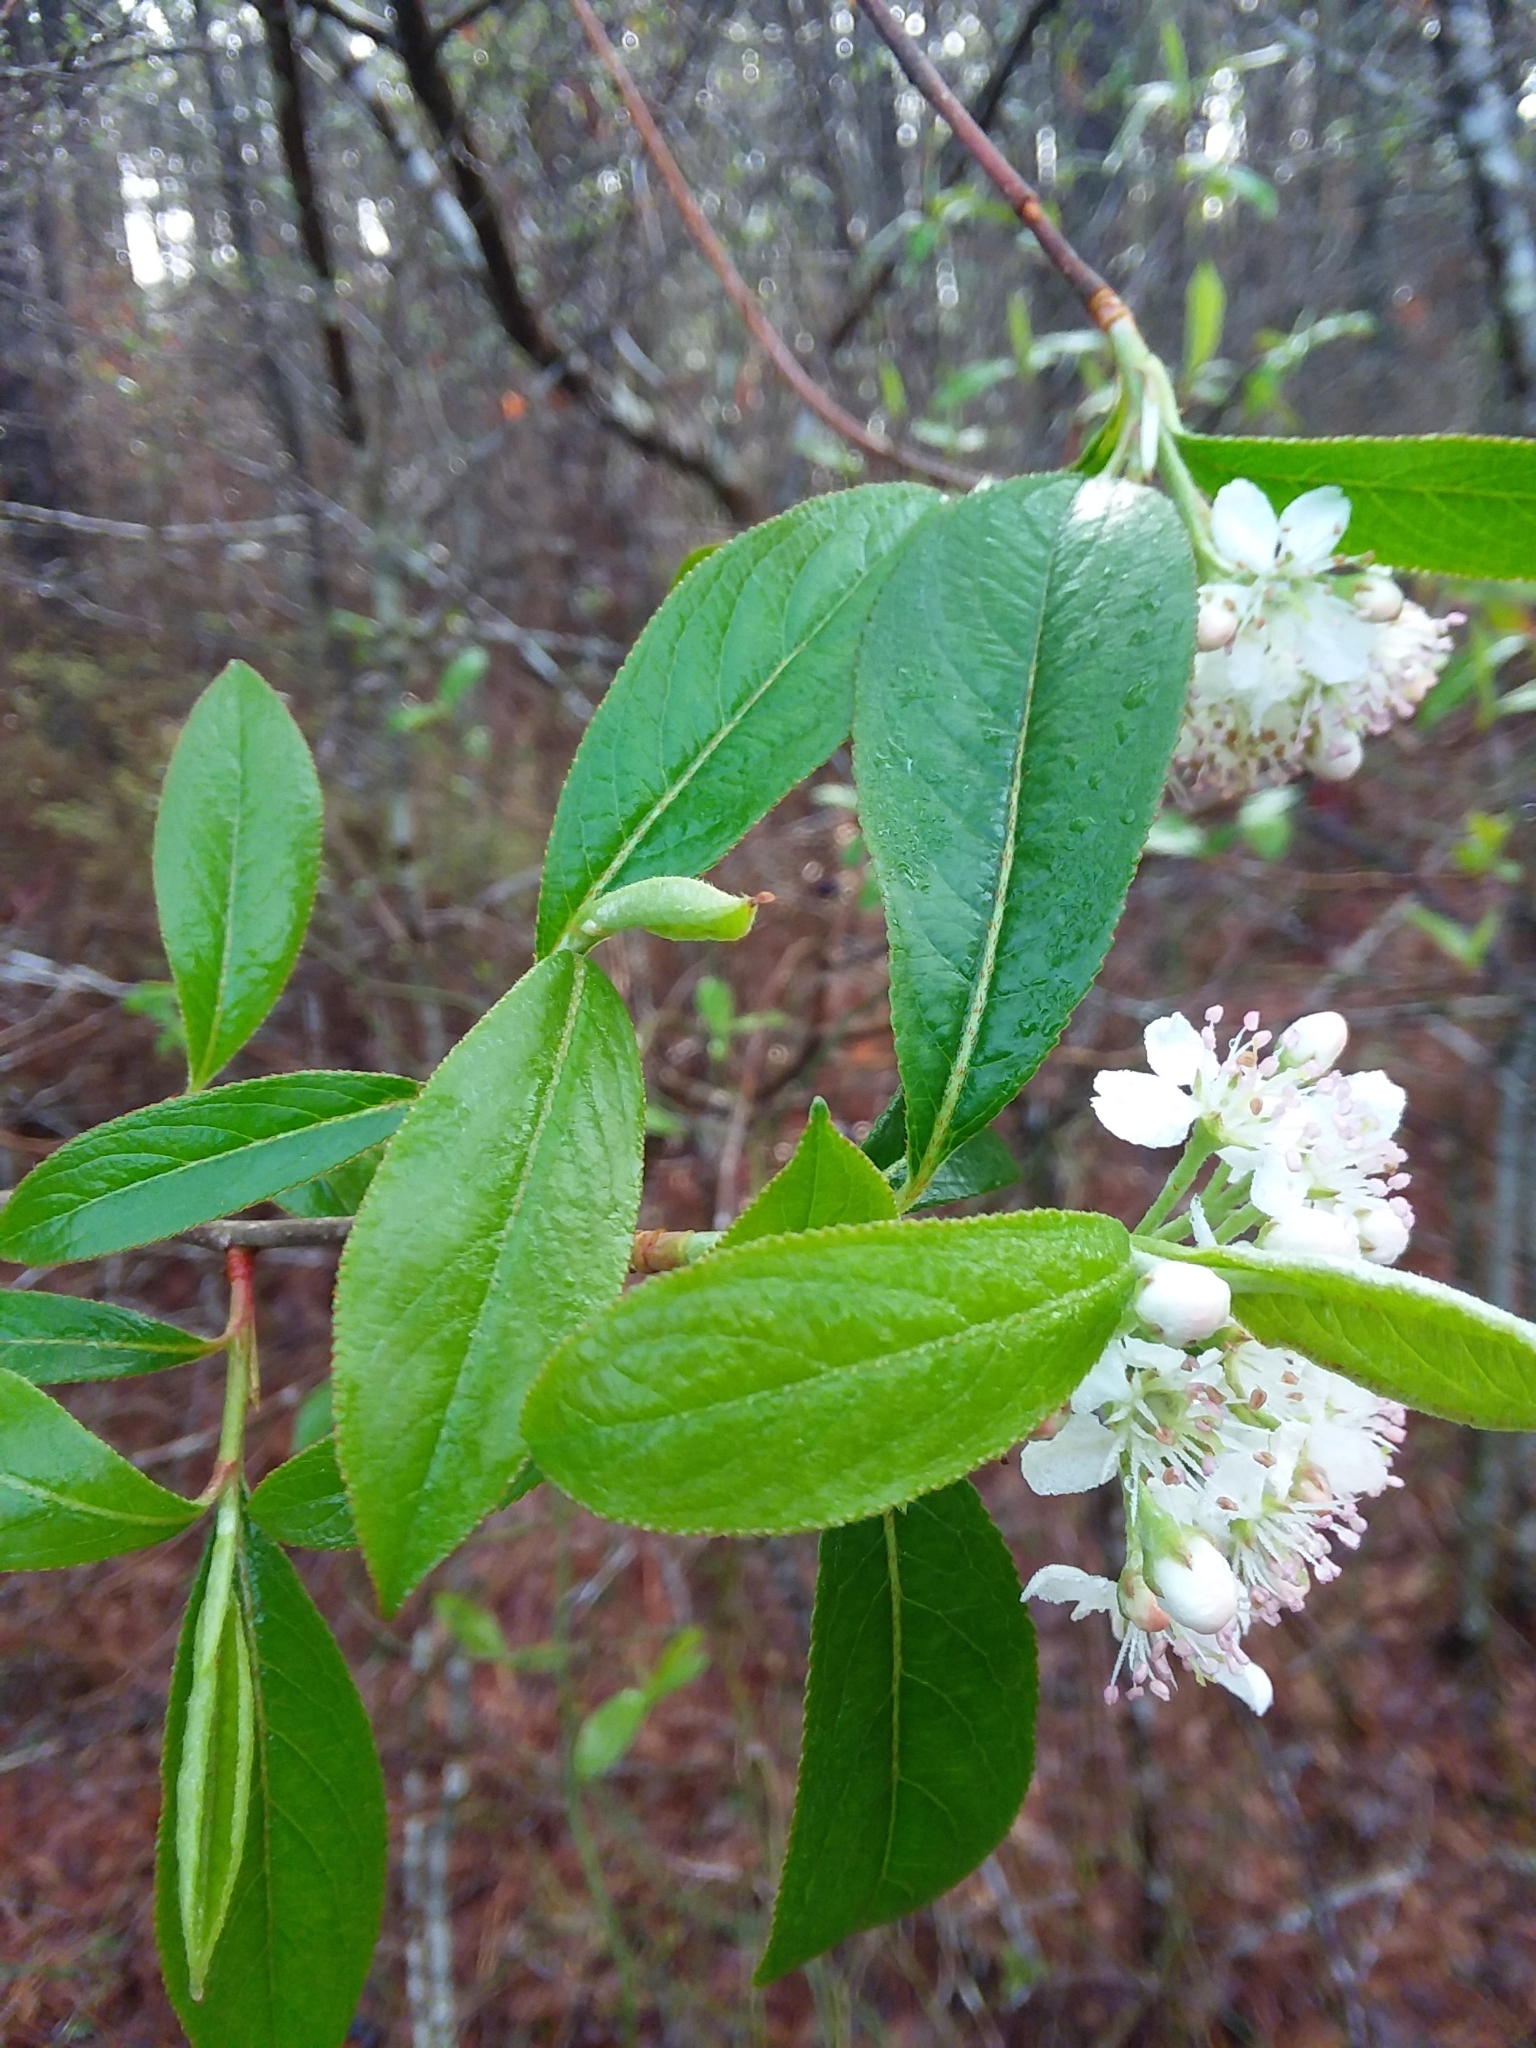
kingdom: Plantae
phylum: Tracheophyta
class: Magnoliopsida
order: Rosales
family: Rosaceae
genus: Aronia
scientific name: Aronia arbutifolia
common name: Red chokeberry
